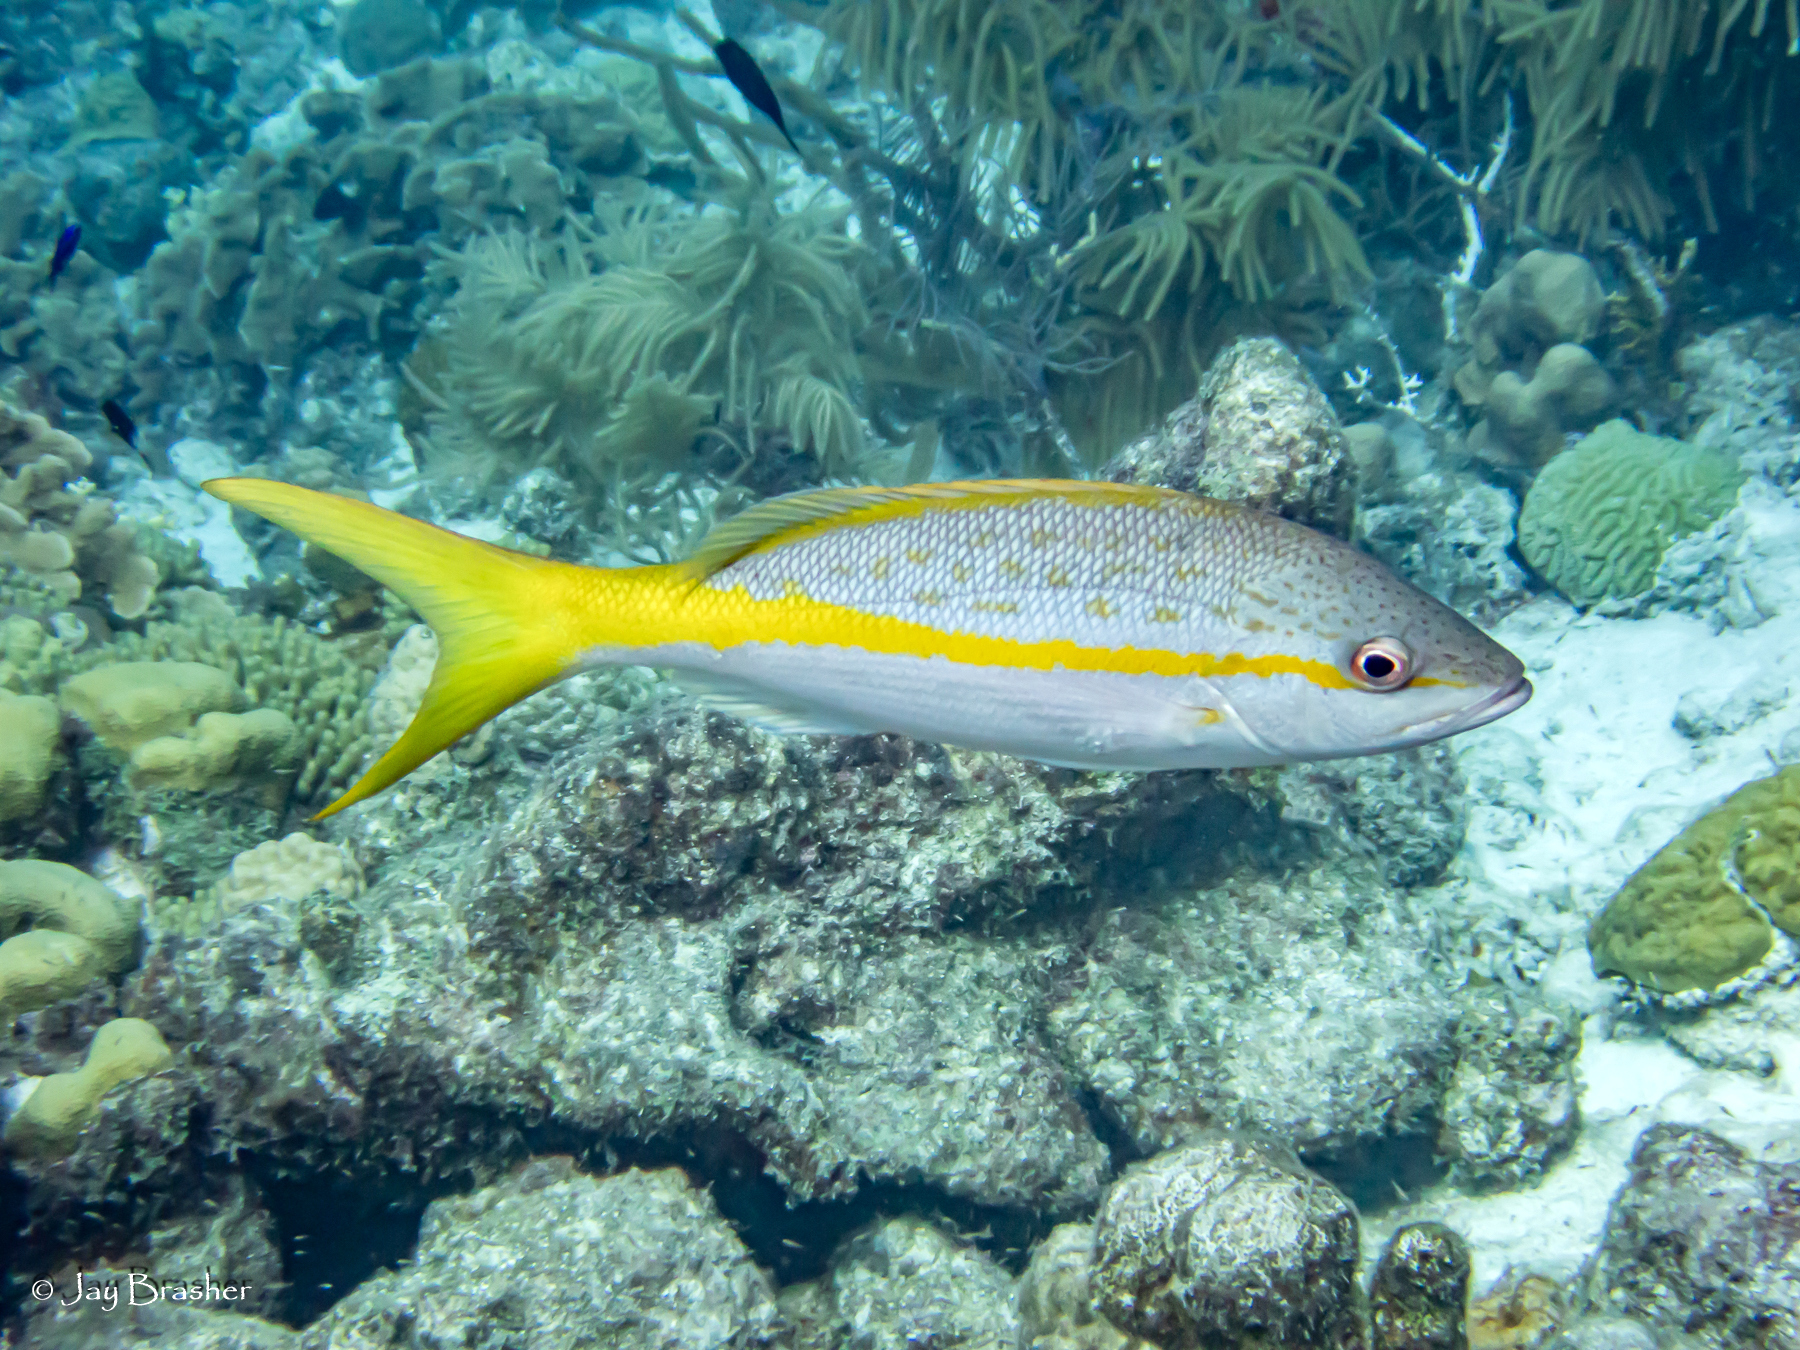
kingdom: Animalia
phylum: Chordata
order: Perciformes
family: Lutjanidae
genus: Ocyurus
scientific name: Ocyurus chrysurus
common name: Yellowtail snapper
